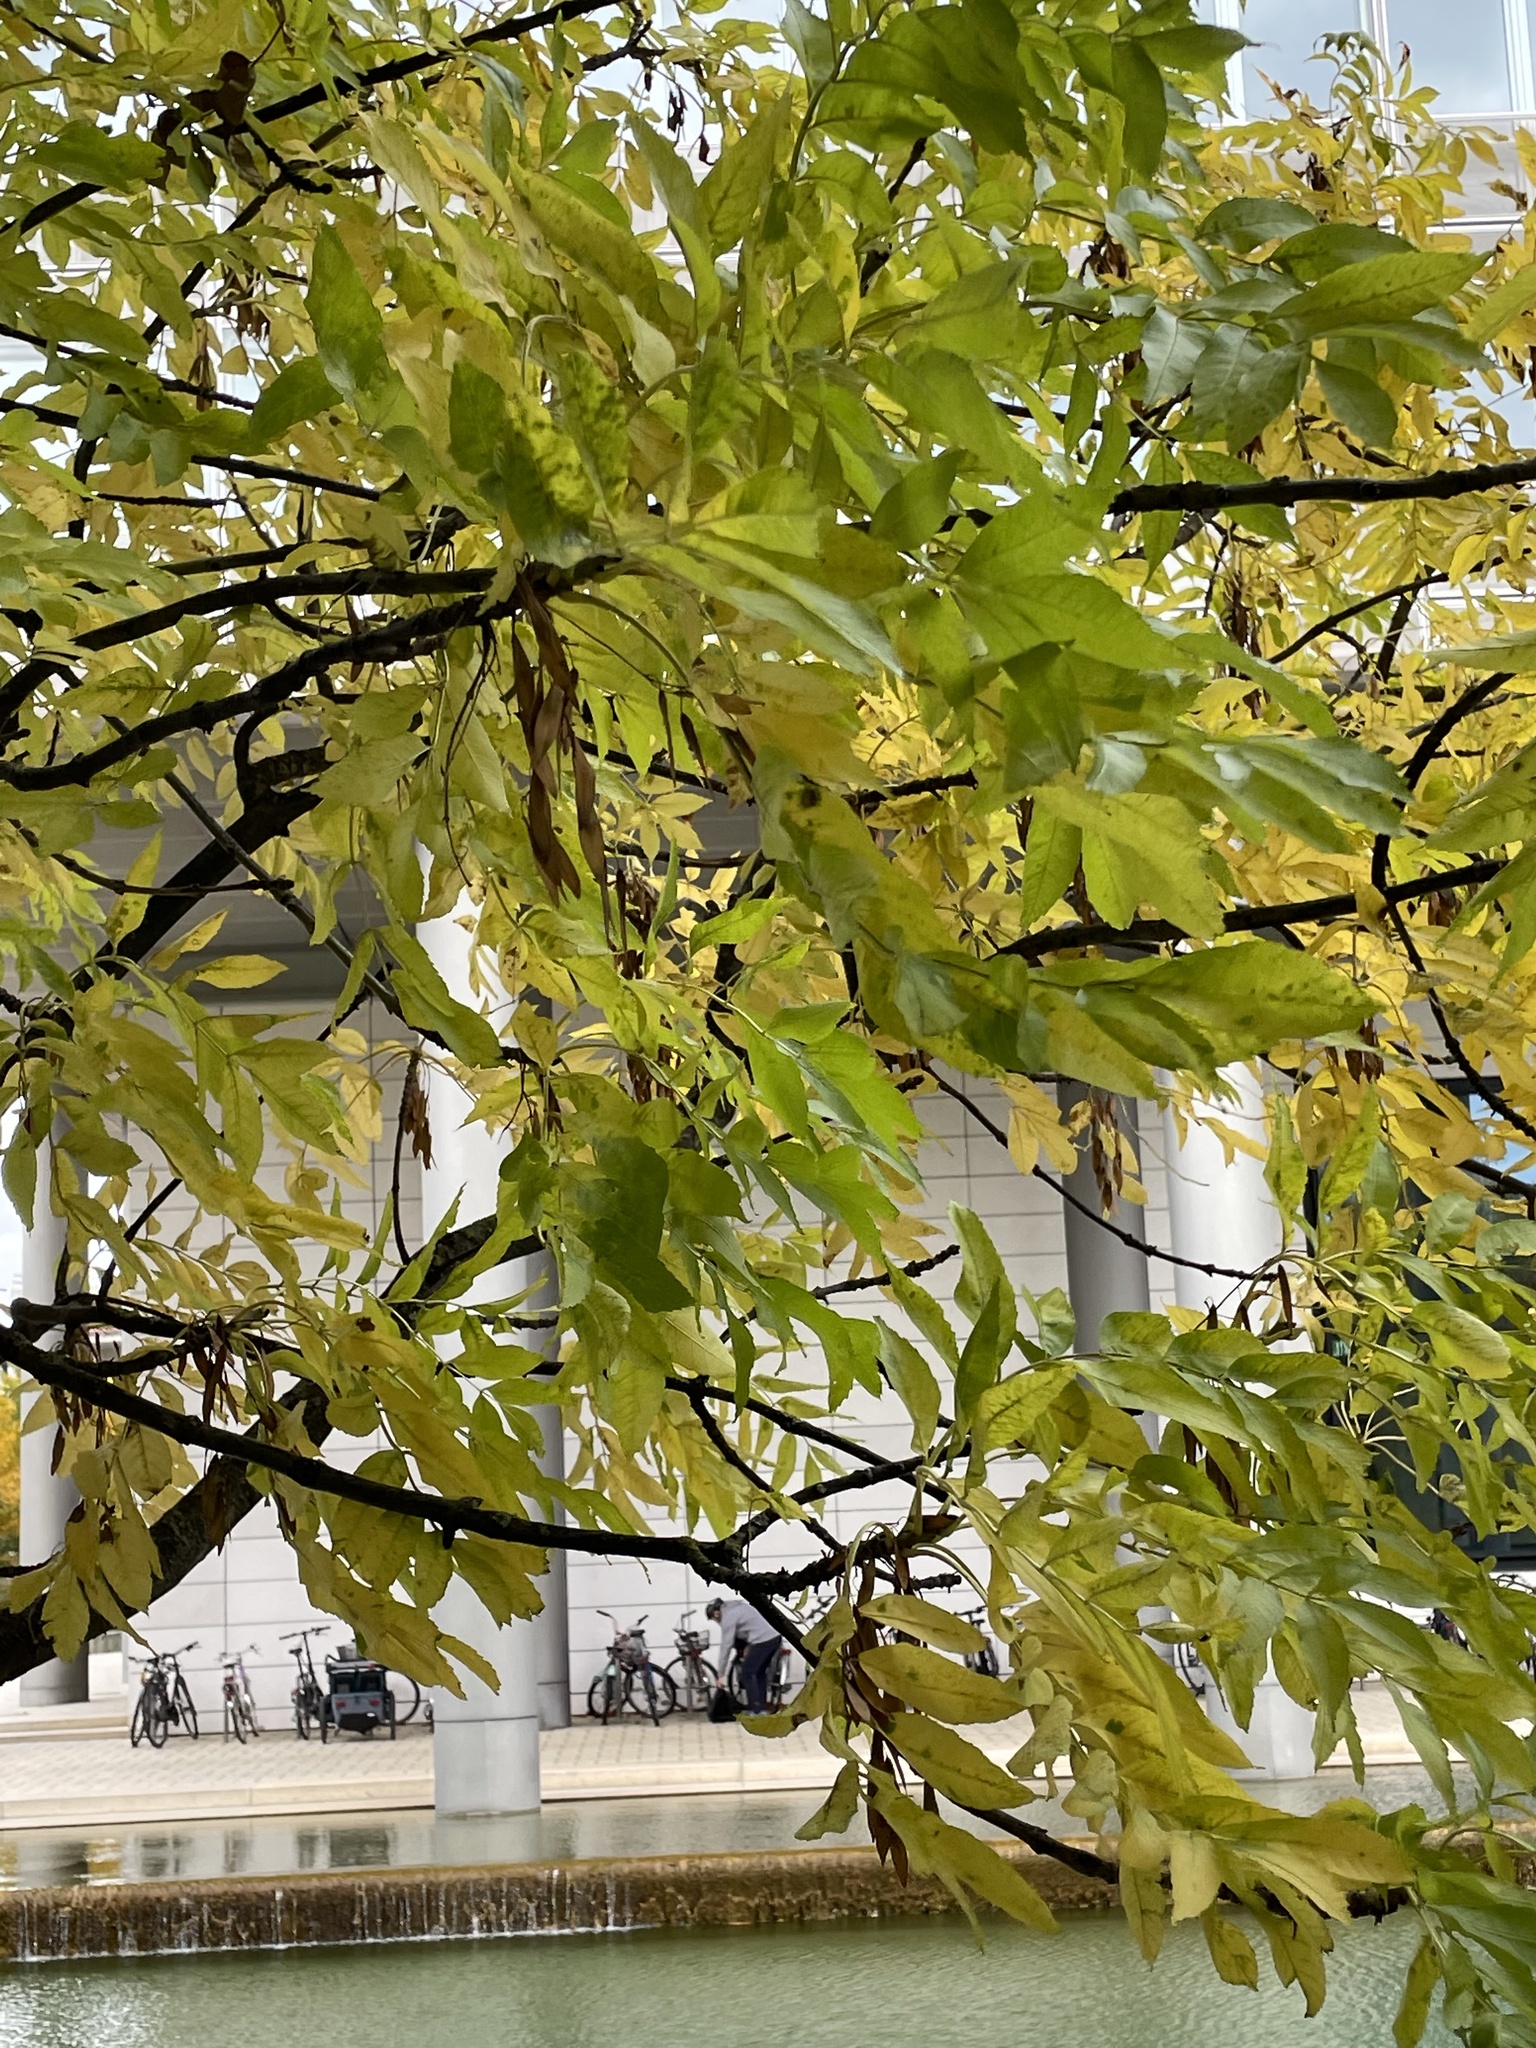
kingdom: Plantae
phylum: Tracheophyta
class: Magnoliopsida
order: Lamiales
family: Oleaceae
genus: Fraxinus
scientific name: Fraxinus excelsior
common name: European ash
